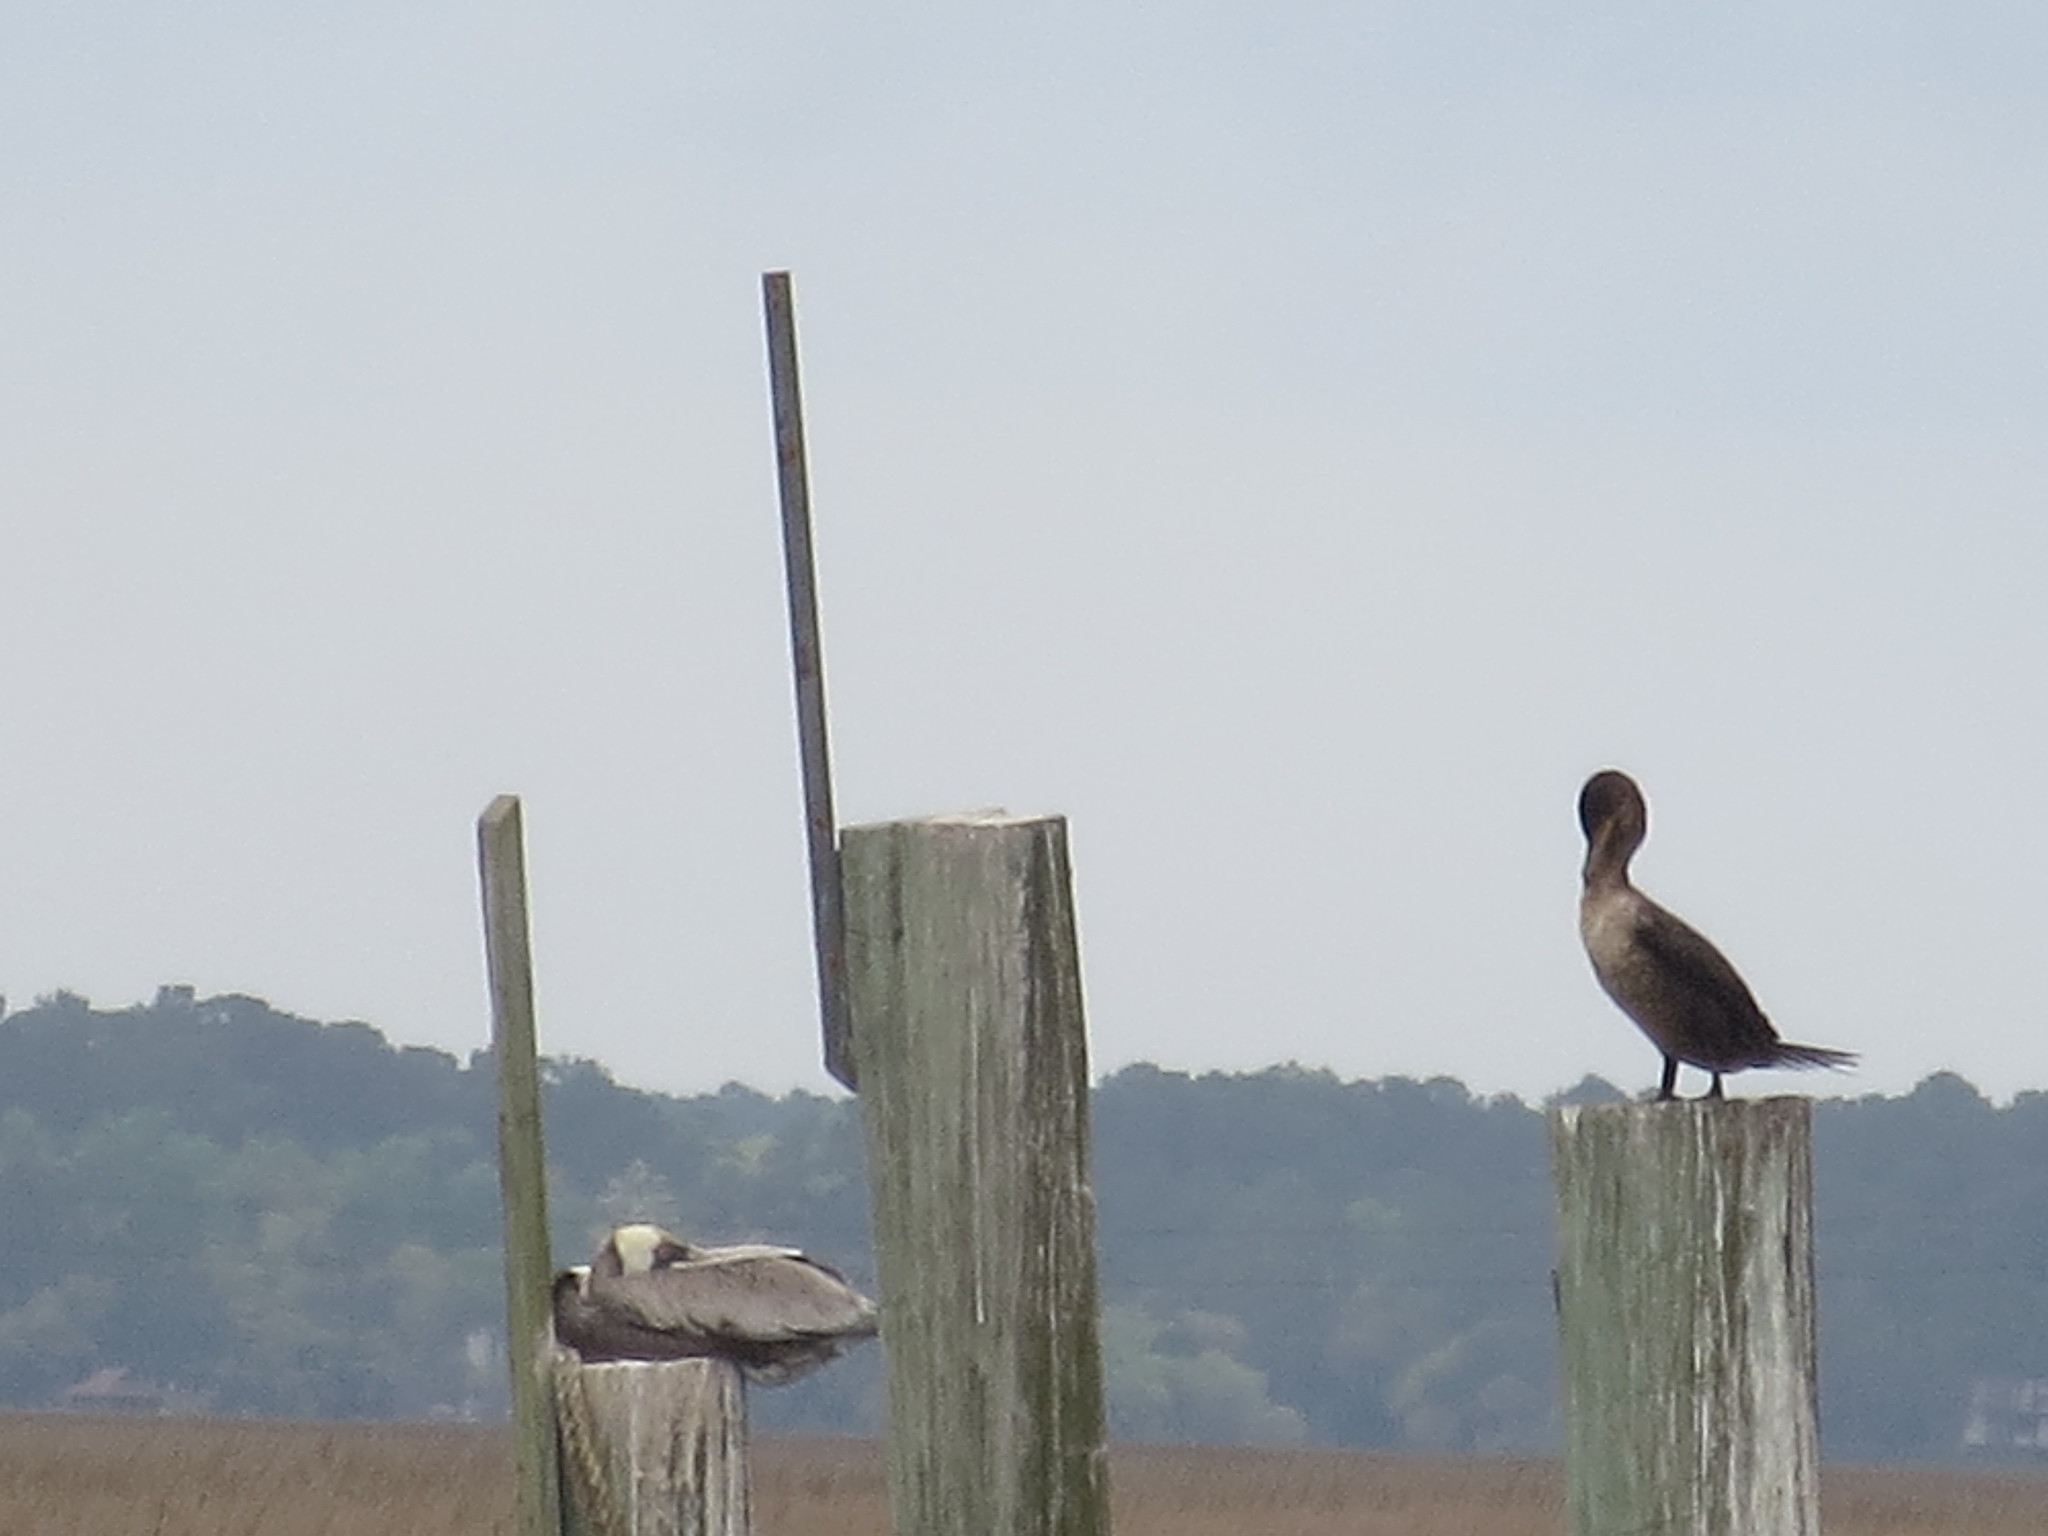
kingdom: Animalia
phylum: Chordata
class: Aves
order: Suliformes
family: Phalacrocoracidae
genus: Phalacrocorax
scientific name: Phalacrocorax auritus
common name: Double-crested cormorant
